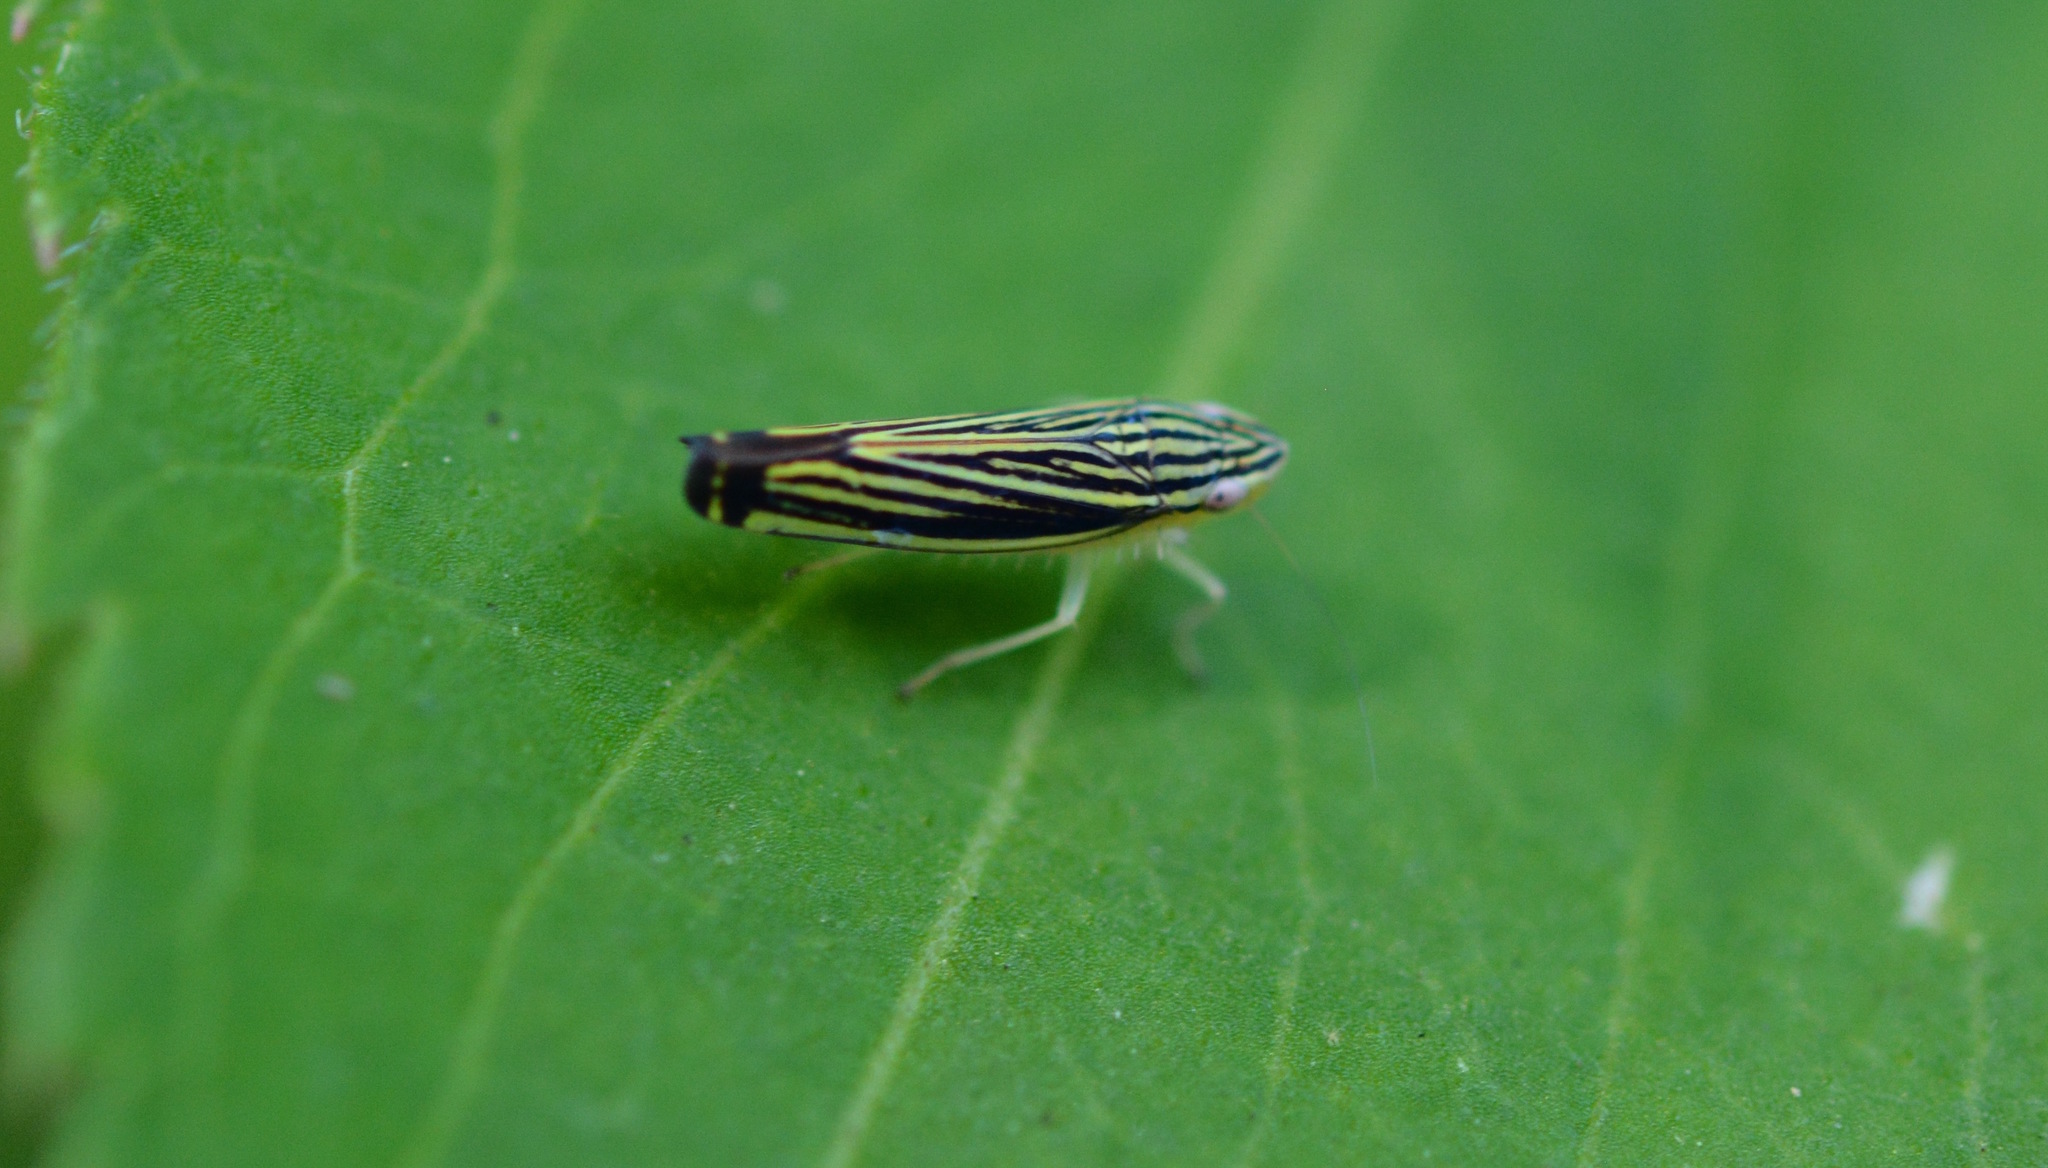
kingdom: Animalia
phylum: Arthropoda
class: Insecta
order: Hemiptera
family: Cicadellidae
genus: Sibovia
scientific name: Sibovia occatoria
